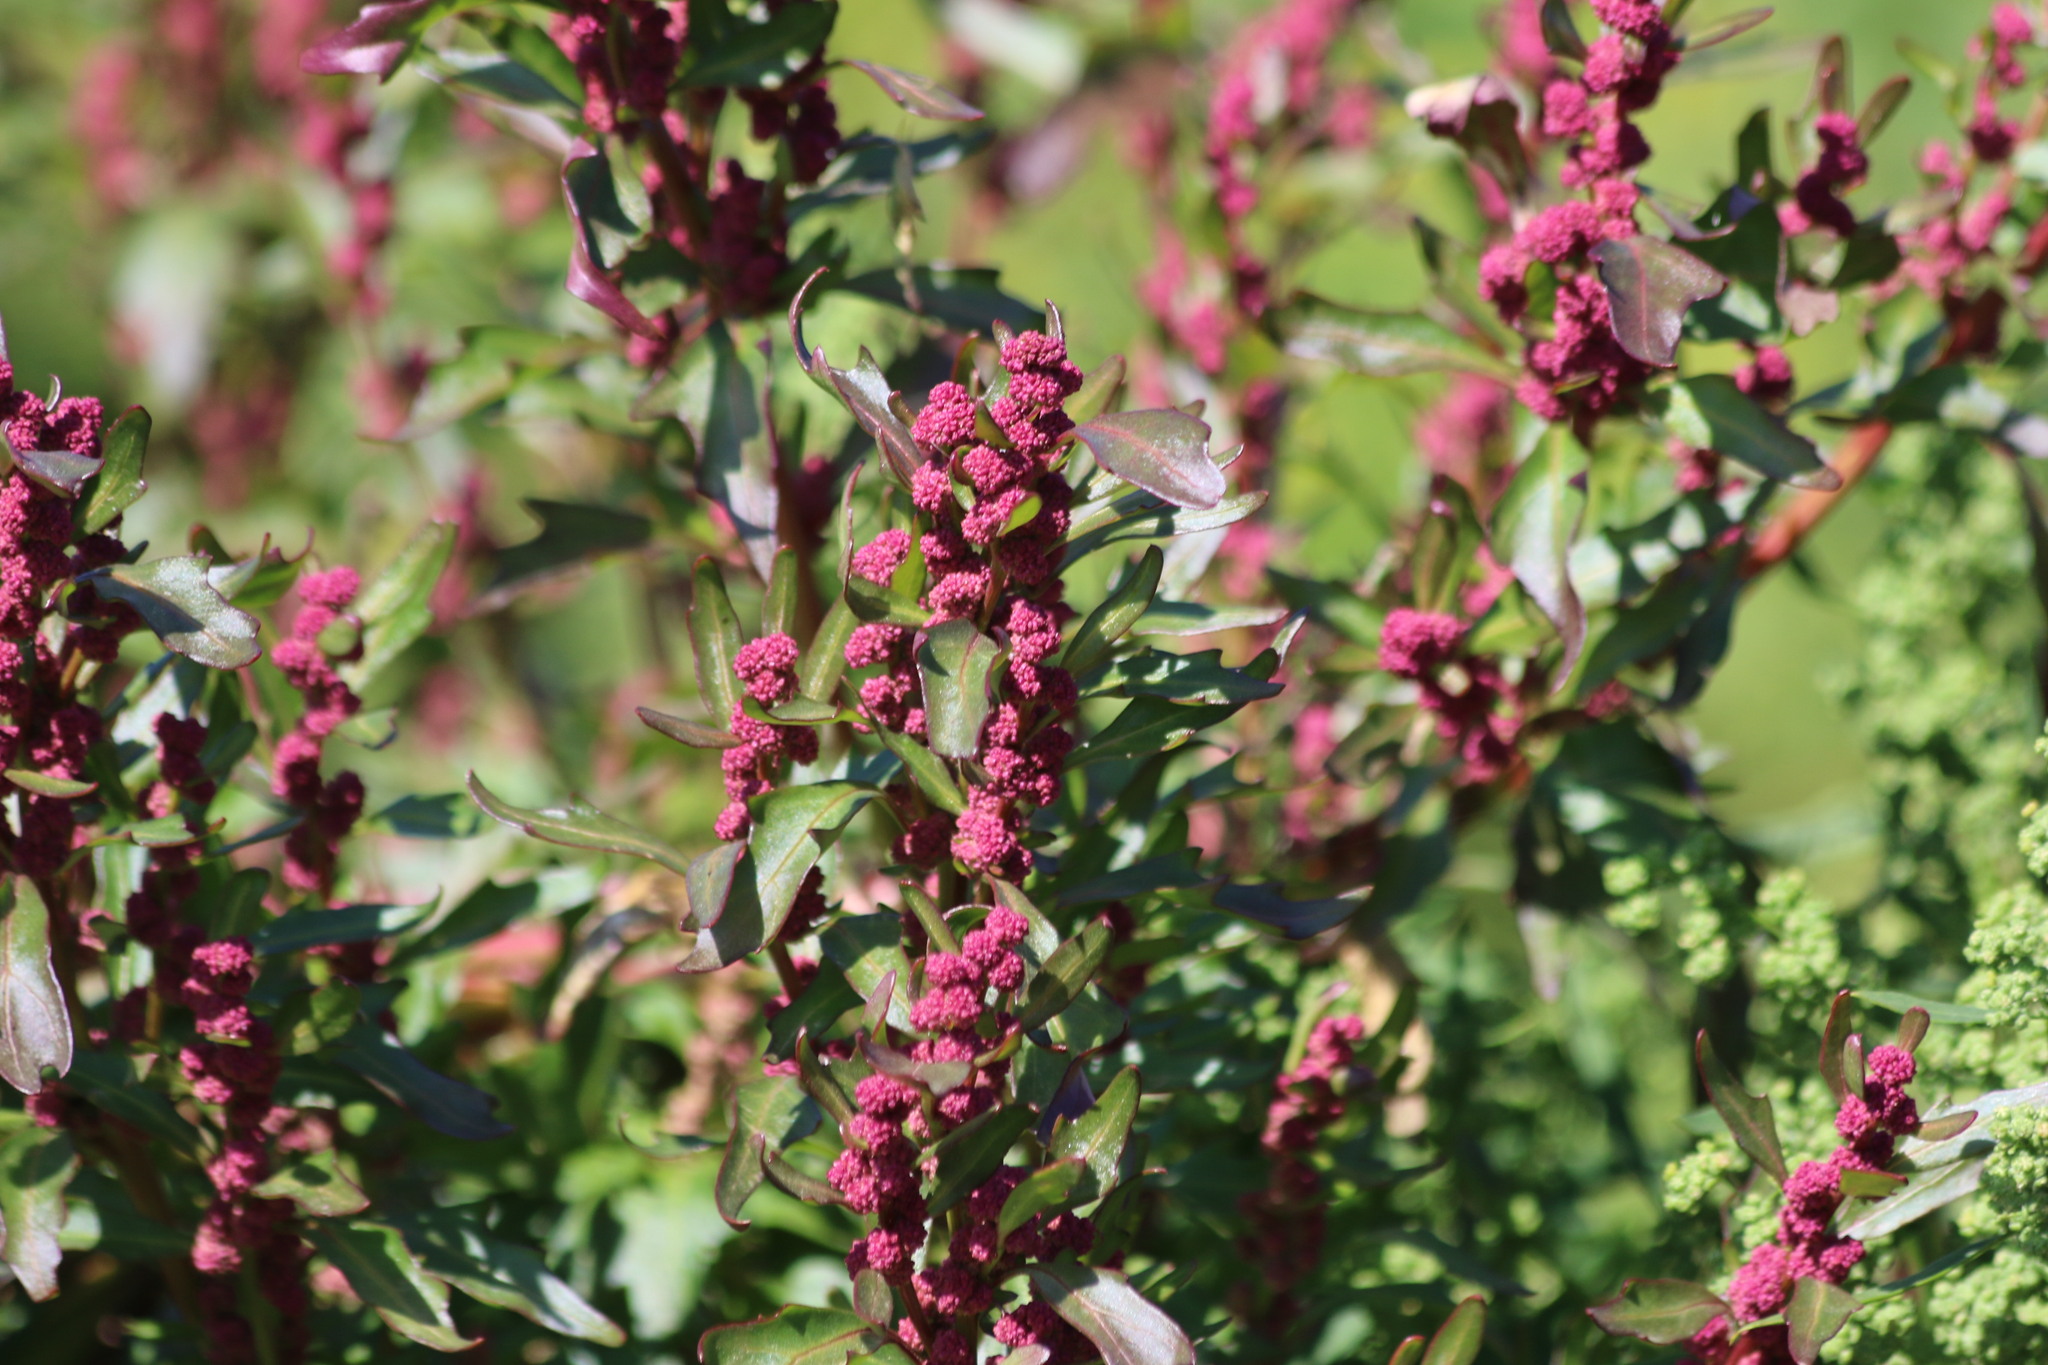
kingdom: Plantae
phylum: Tracheophyta
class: Magnoliopsida
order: Caryophyllales
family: Amaranthaceae
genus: Oxybasis
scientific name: Oxybasis rubra
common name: Red goosefoot
